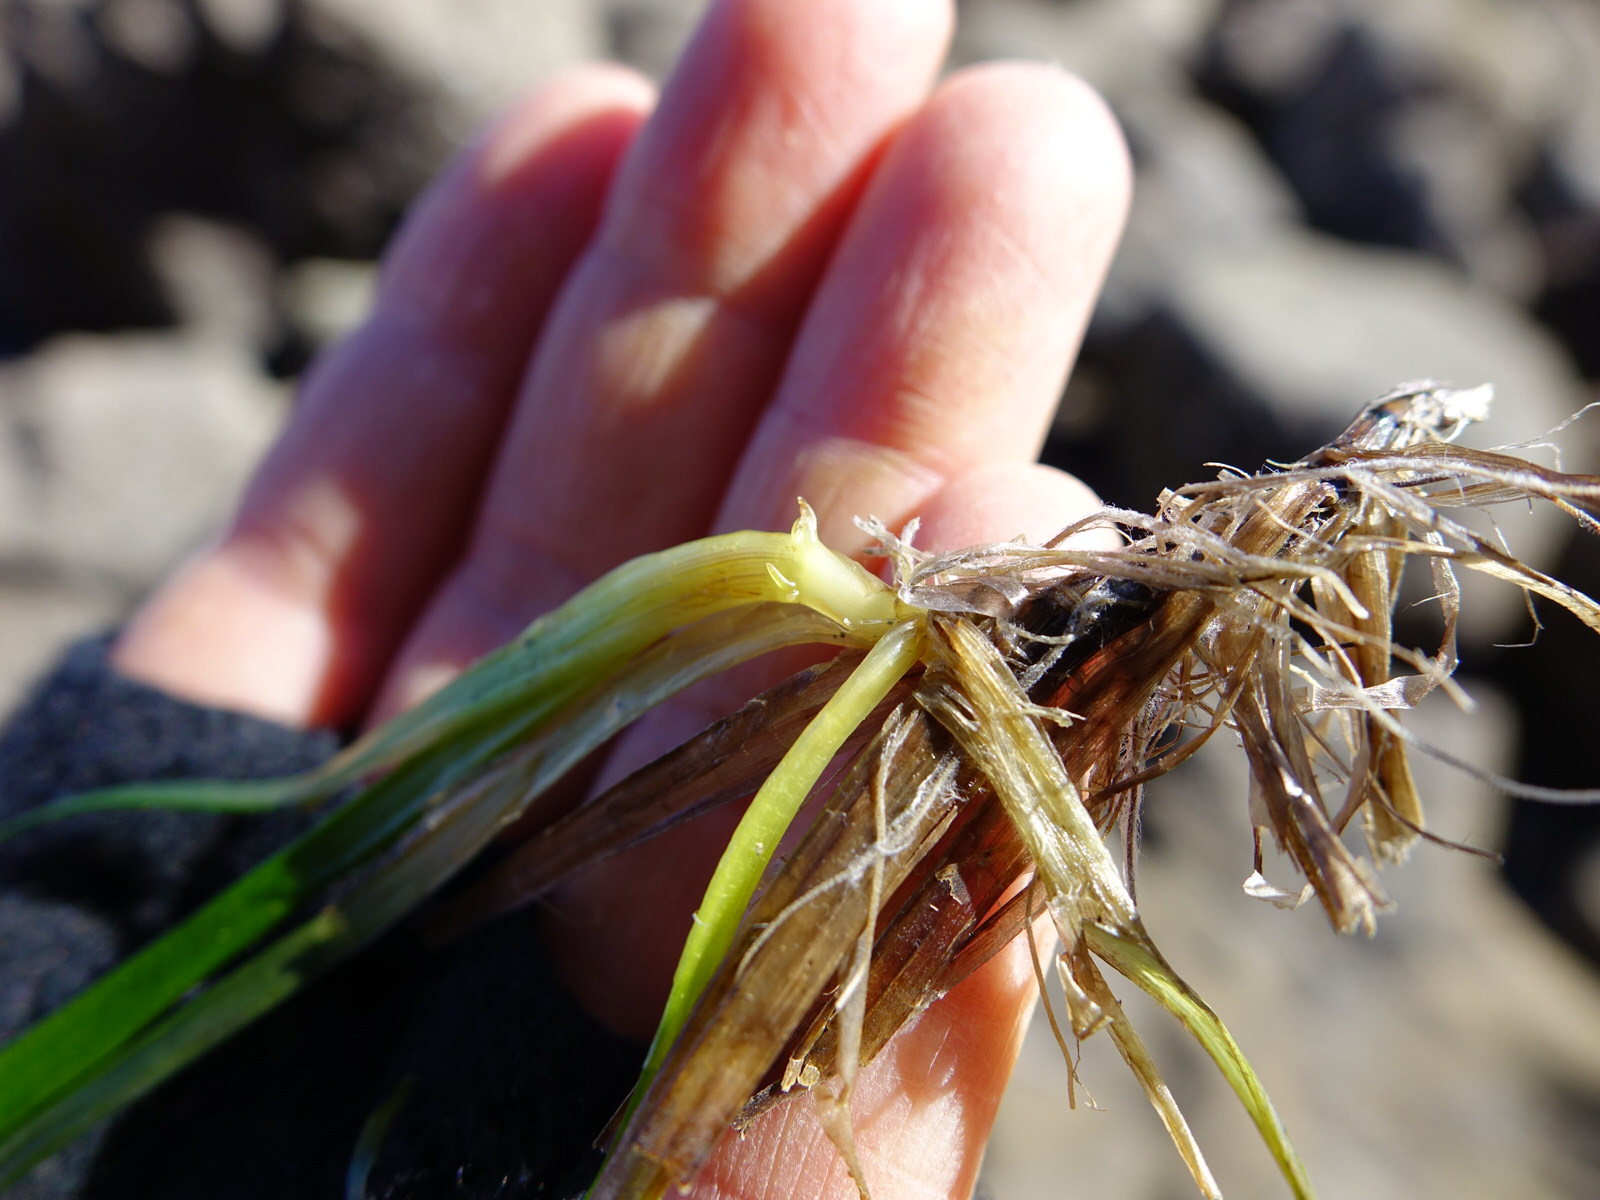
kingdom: Plantae
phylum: Tracheophyta
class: Liliopsida
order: Alismatales
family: Zosteraceae
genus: Zostera
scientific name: Zostera novazelandica
